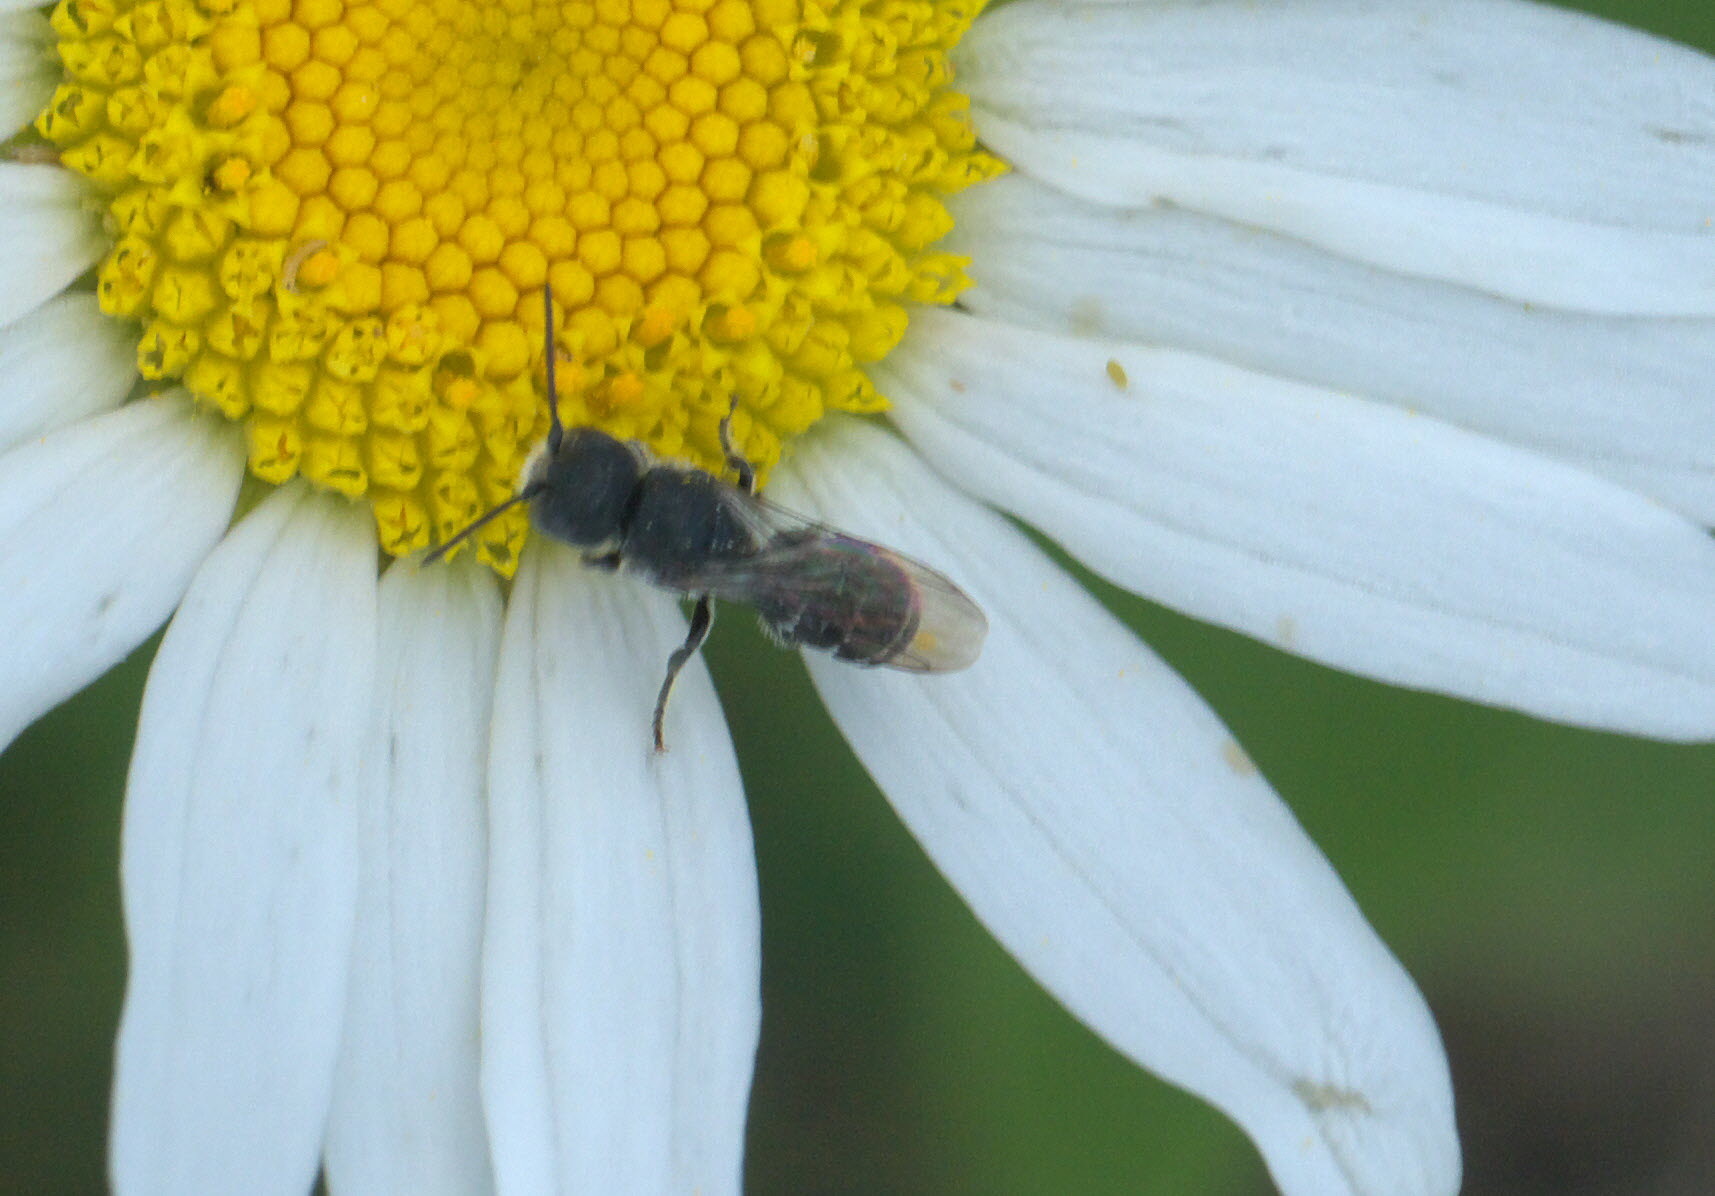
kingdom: Animalia
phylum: Arthropoda
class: Insecta
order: Hymenoptera
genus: Neotrypetes
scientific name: Neotrypetes
